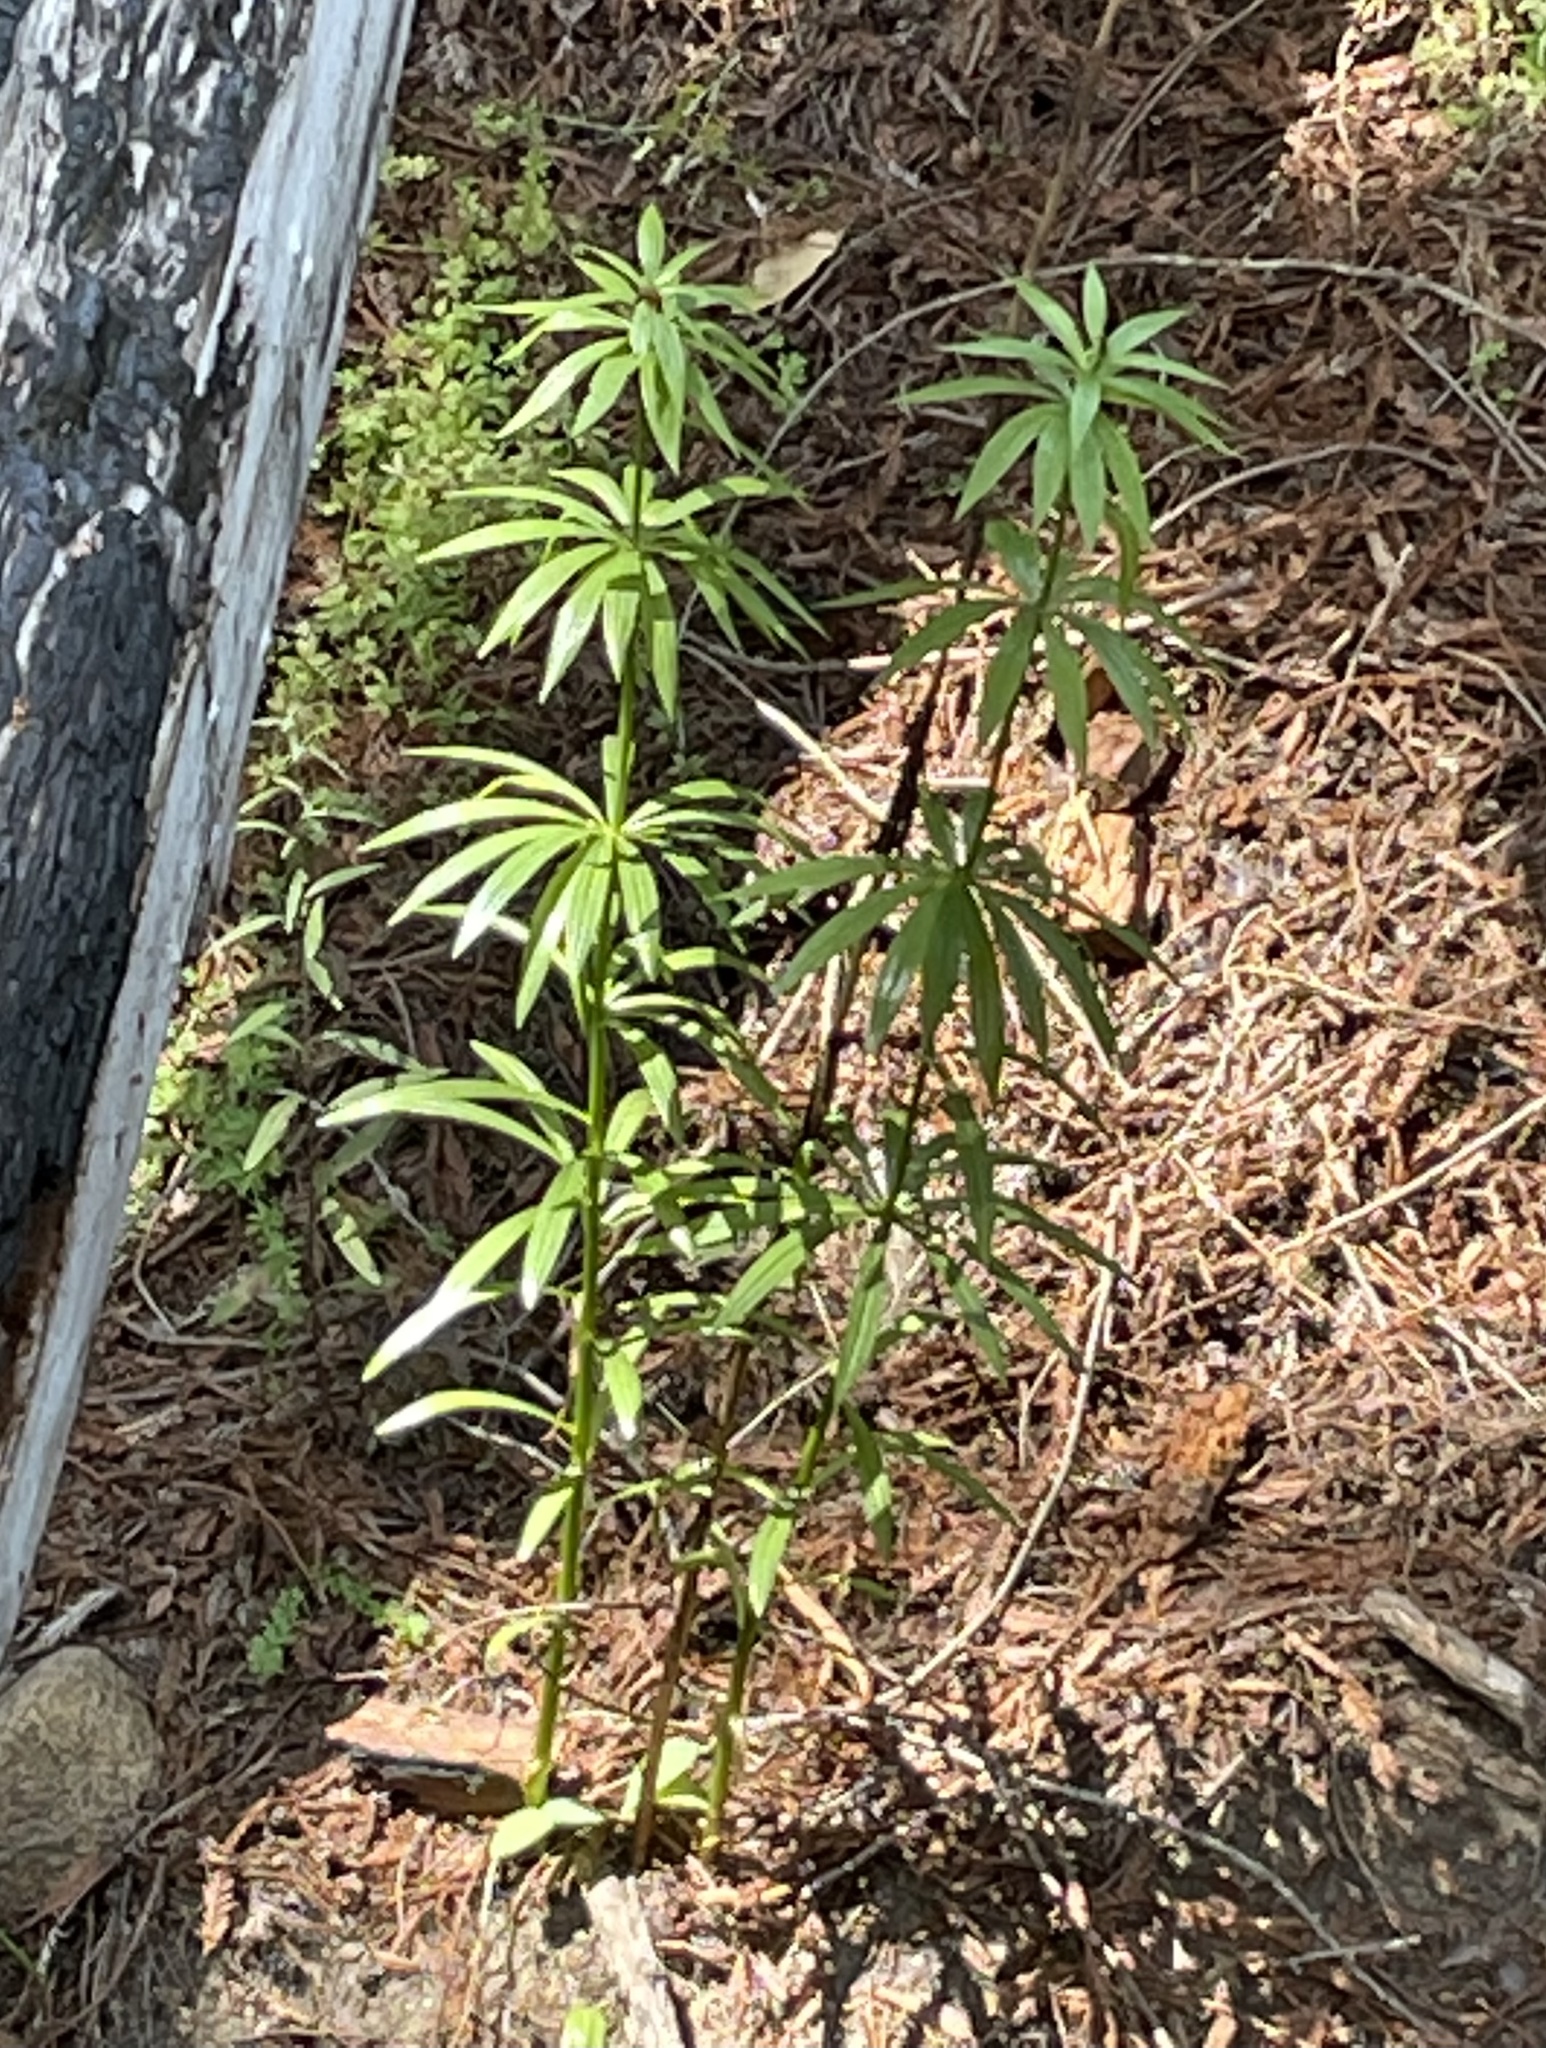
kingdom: Plantae
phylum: Tracheophyta
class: Liliopsida
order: Liliales
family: Liliaceae
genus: Lilium
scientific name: Lilium pardalinum
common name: Panther lily
